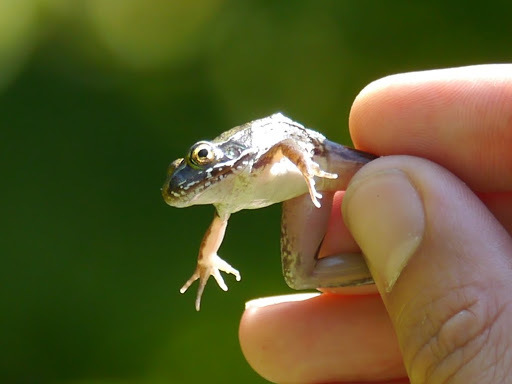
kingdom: Animalia
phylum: Chordata
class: Amphibia
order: Anura
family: Ranidae
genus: Lithobates
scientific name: Lithobates clamitans
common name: Green frog
